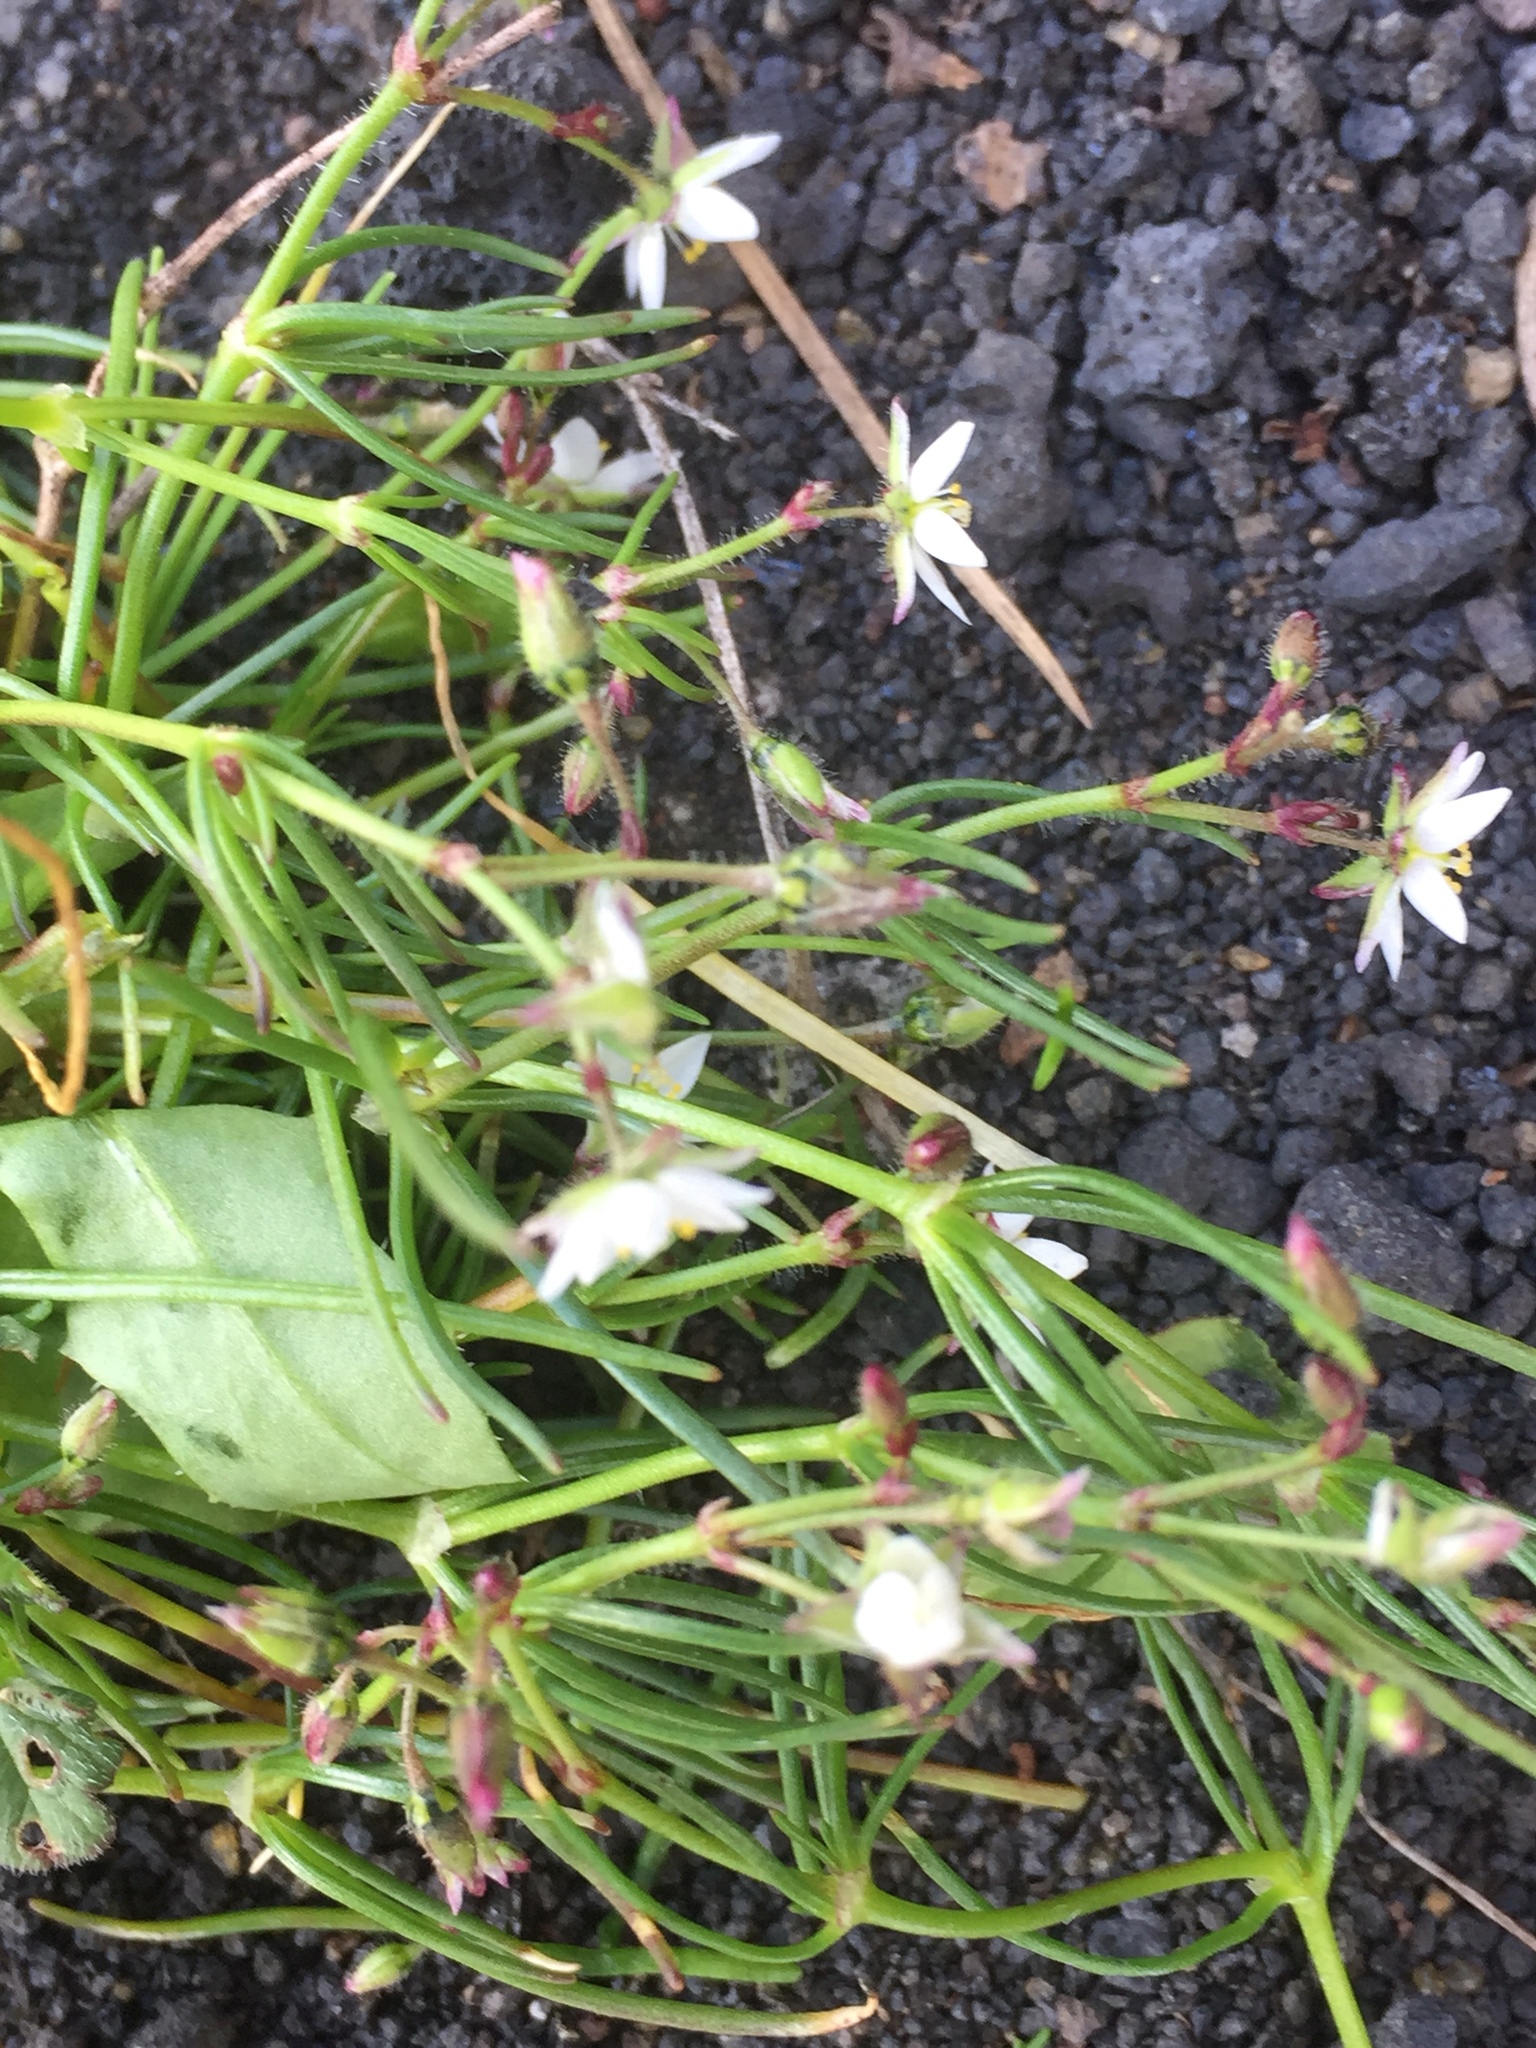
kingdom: Plantae
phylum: Tracheophyta
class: Magnoliopsida
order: Caryophyllales
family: Caryophyllaceae
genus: Spergula
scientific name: Spergula arvensis
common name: Corn spurrey
